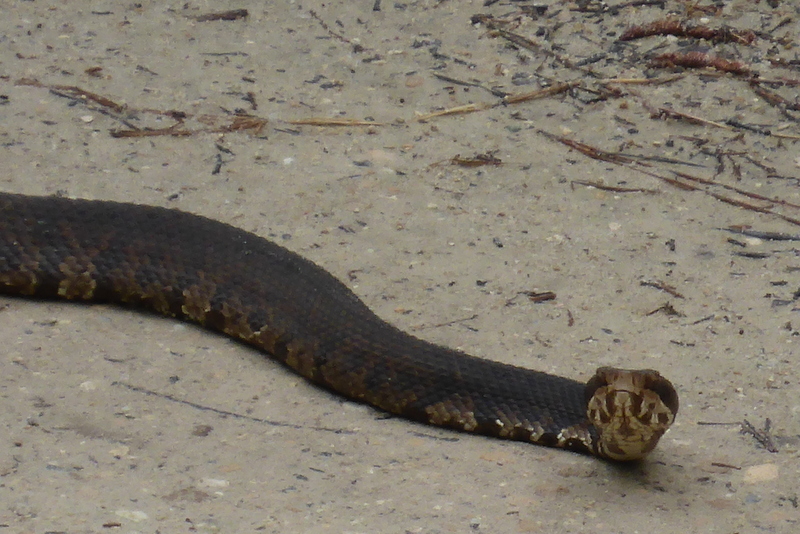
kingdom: Animalia
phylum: Chordata
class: Squamata
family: Viperidae
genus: Agkistrodon
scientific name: Agkistrodon conanti
